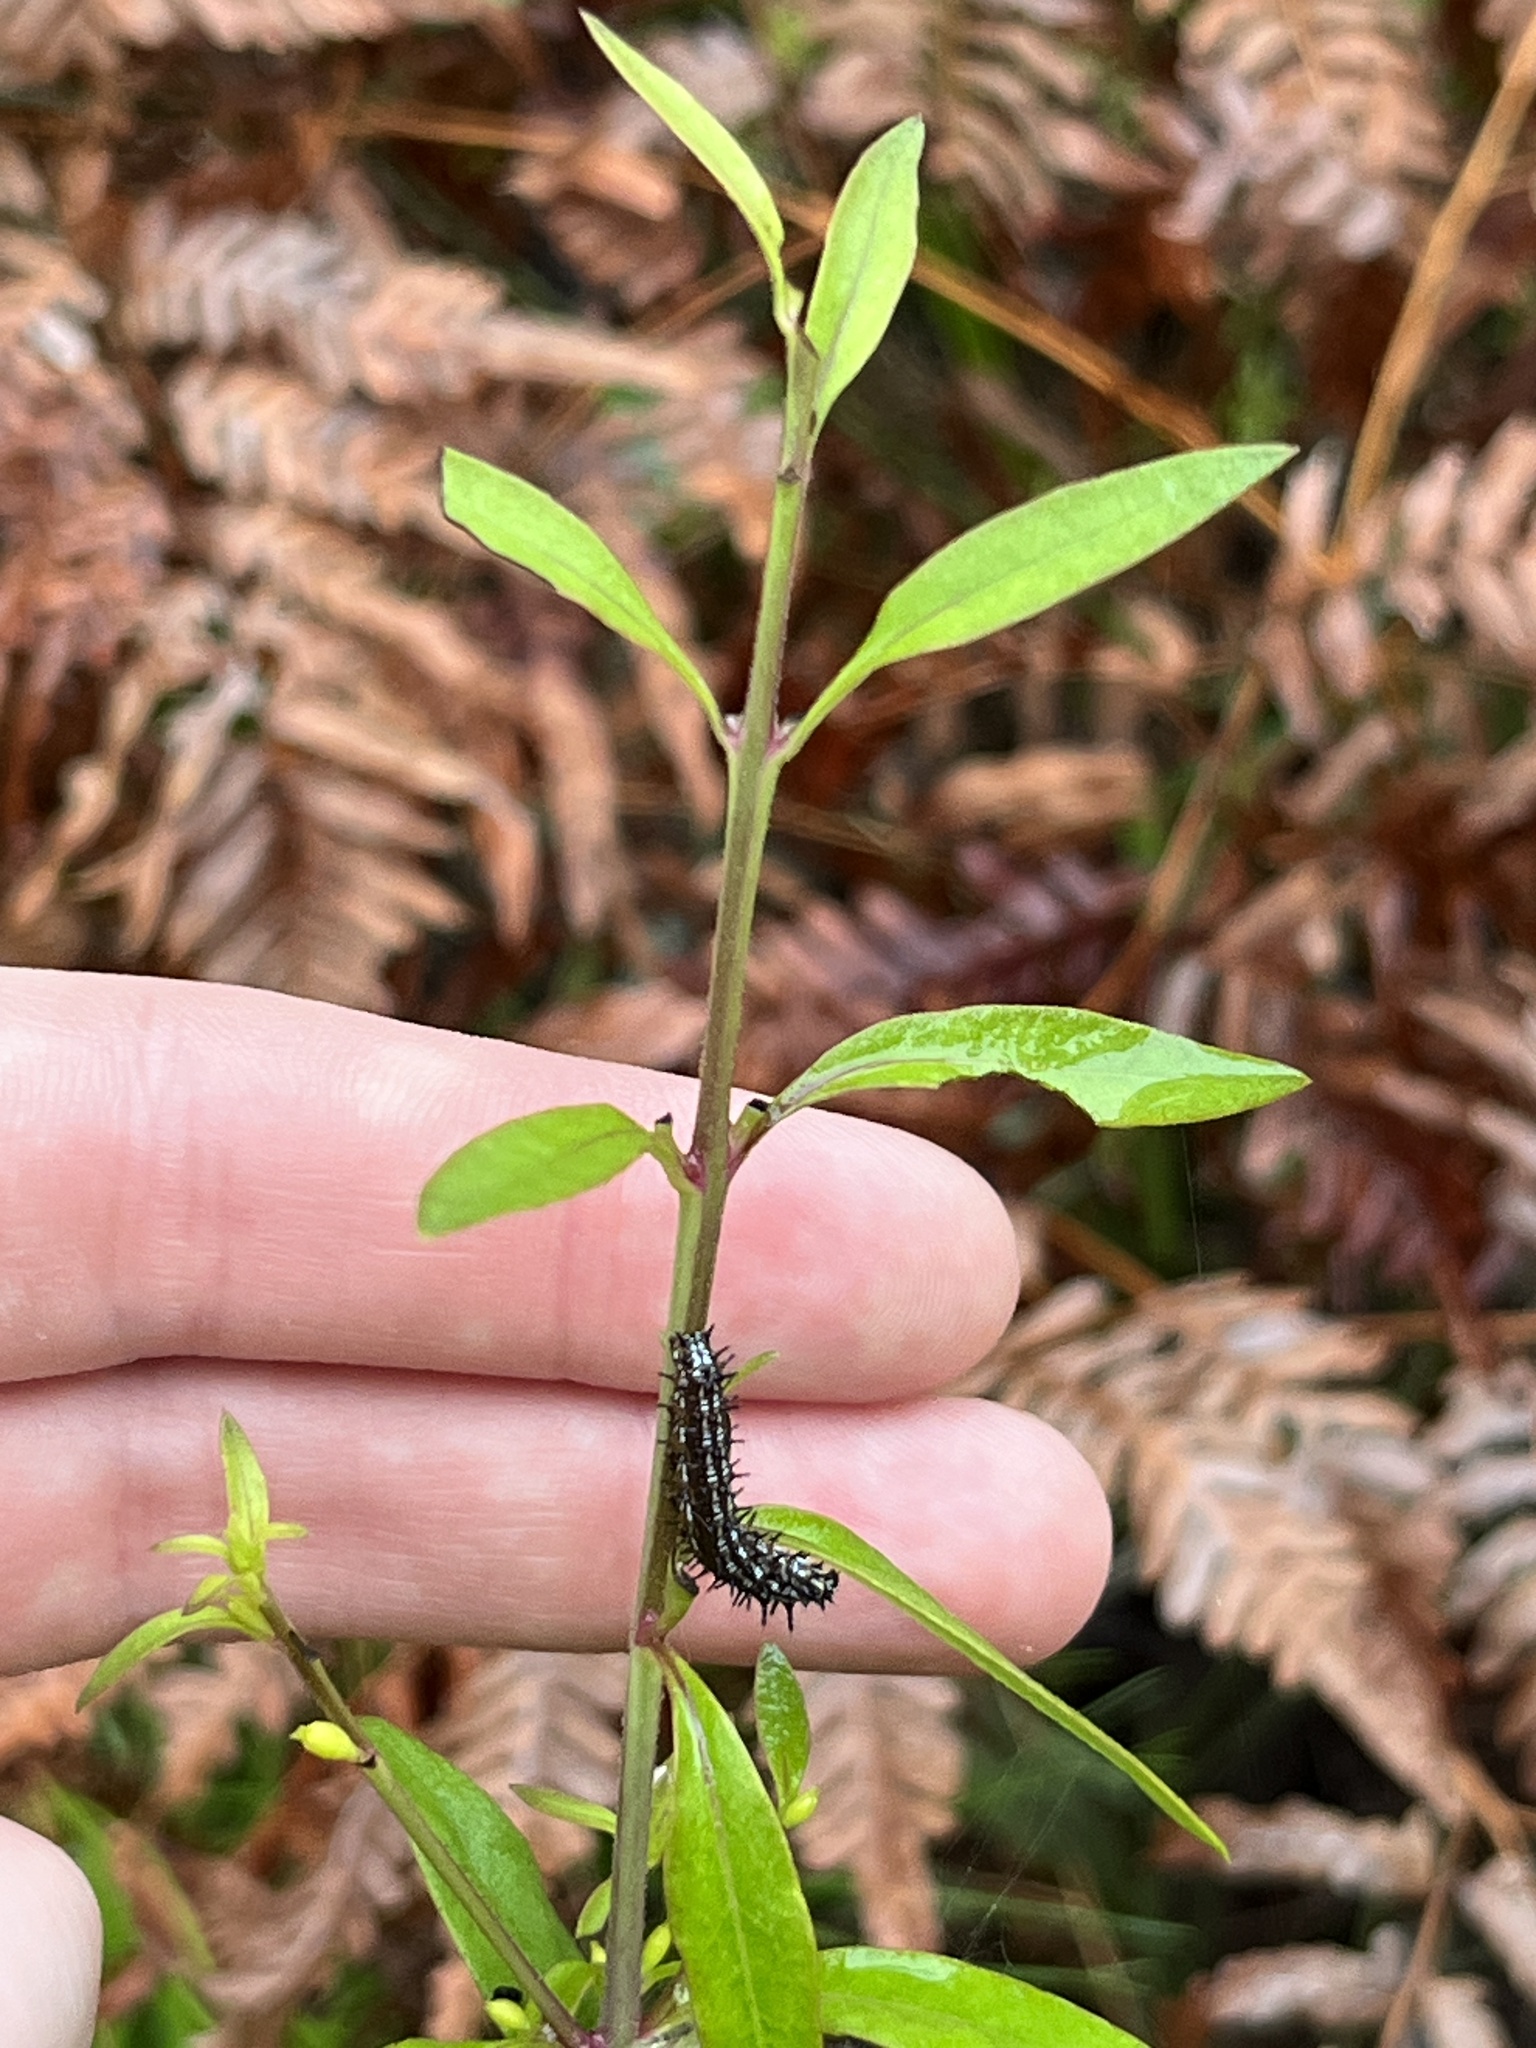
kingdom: Animalia
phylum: Arthropoda
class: Insecta
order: Lepidoptera
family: Nymphalidae
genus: Junonia
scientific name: Junonia coenia
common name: Common buckeye
